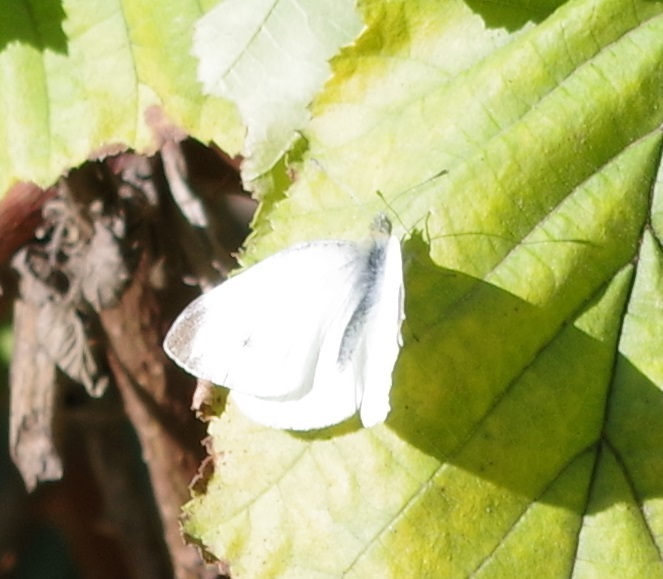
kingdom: Animalia
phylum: Arthropoda
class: Insecta
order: Lepidoptera
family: Pieridae
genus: Pieris
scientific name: Pieris rapae
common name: Small white
